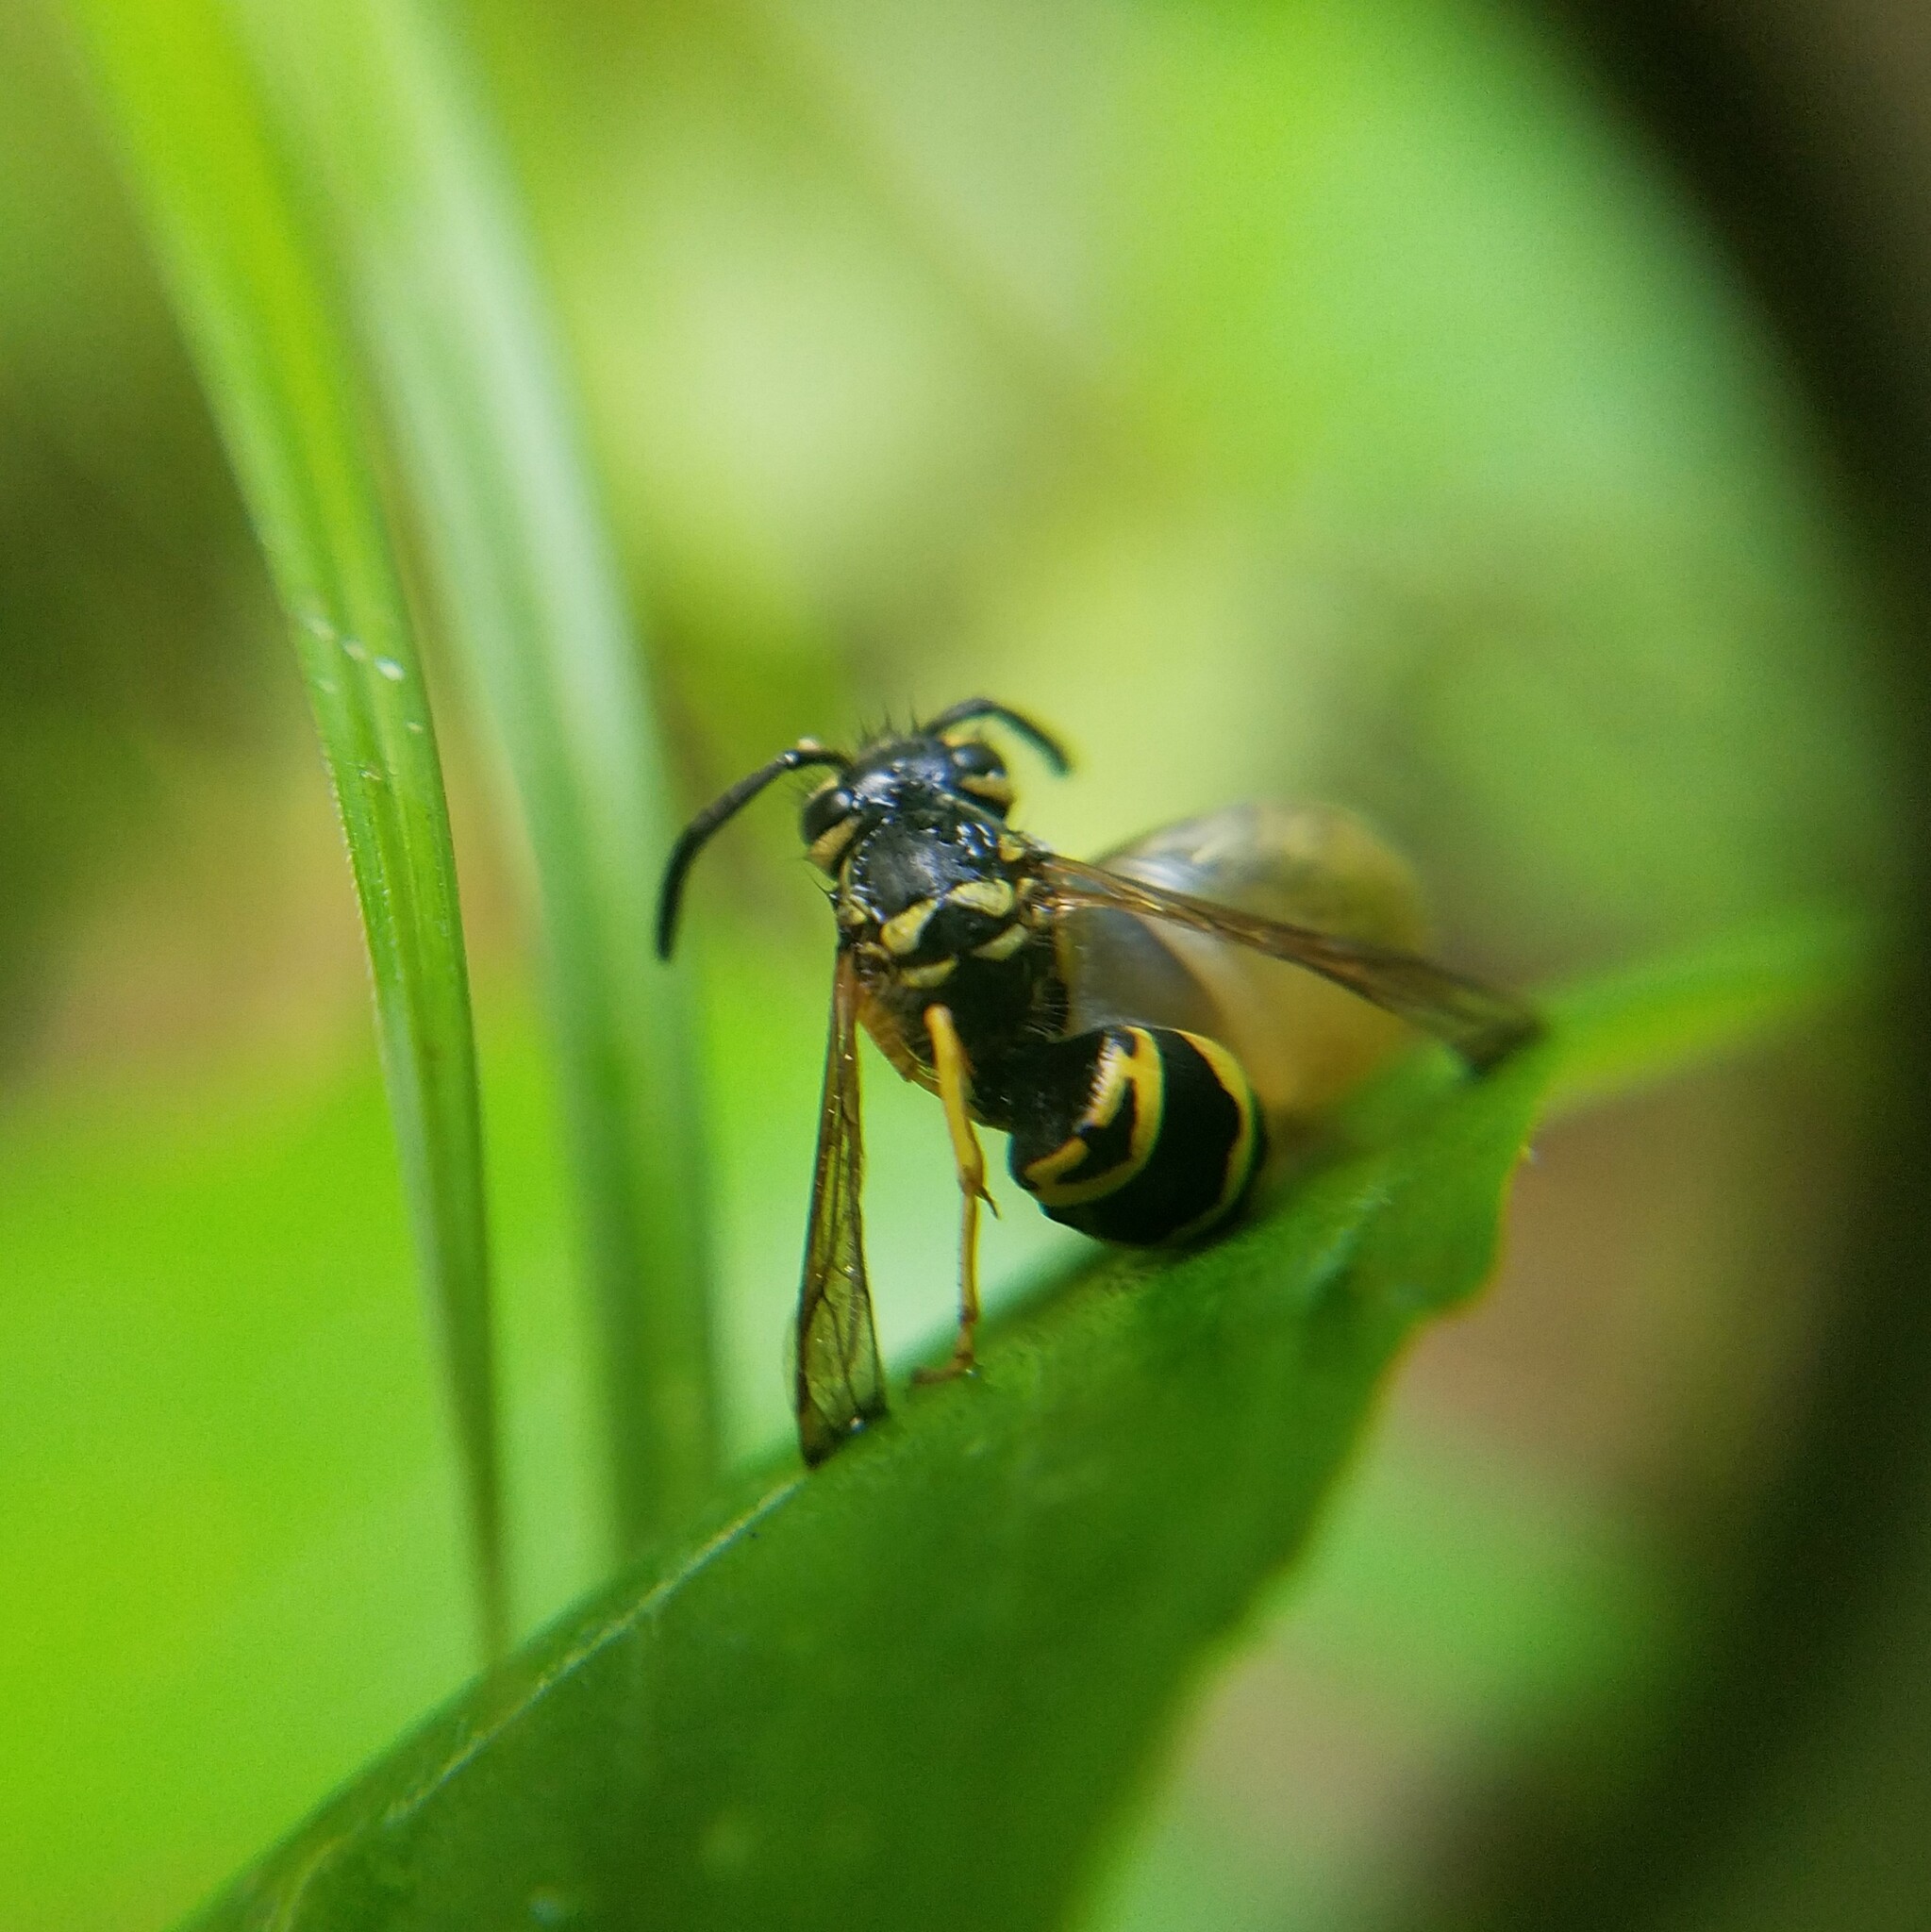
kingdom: Animalia
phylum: Arthropoda
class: Insecta
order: Hymenoptera
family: Vespidae
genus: Vespula
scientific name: Vespula maculifrons
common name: Eastern yellowjacket
